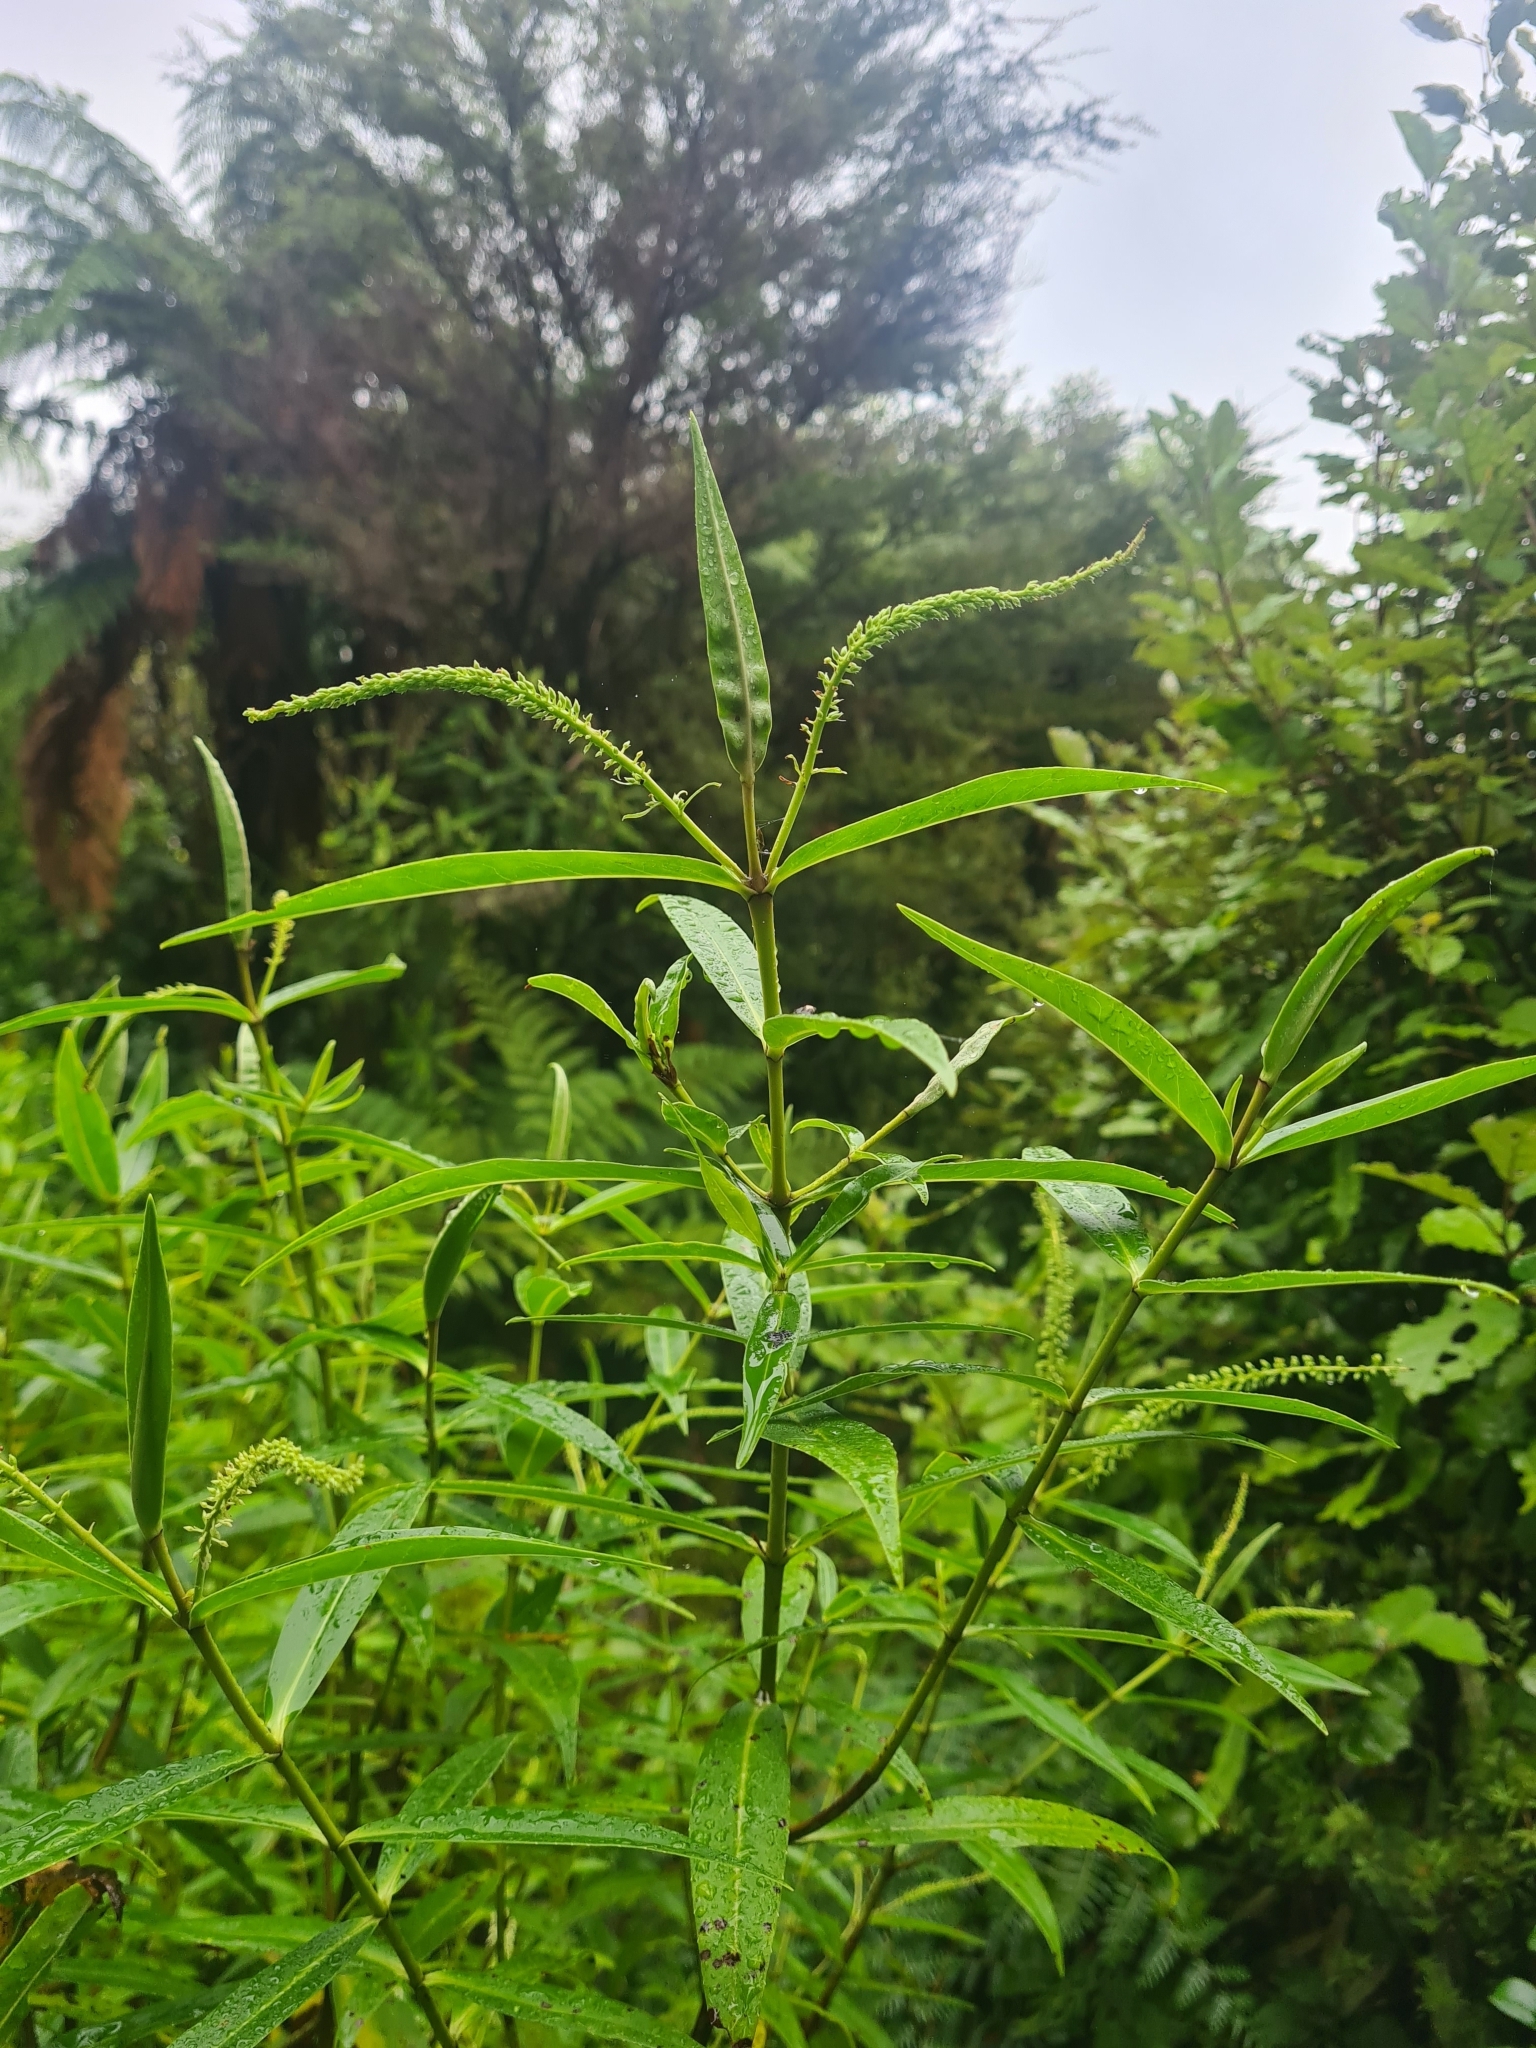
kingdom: Plantae
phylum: Tracheophyta
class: Magnoliopsida
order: Lamiales
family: Plantaginaceae
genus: Veronica
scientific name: Veronica stricta
